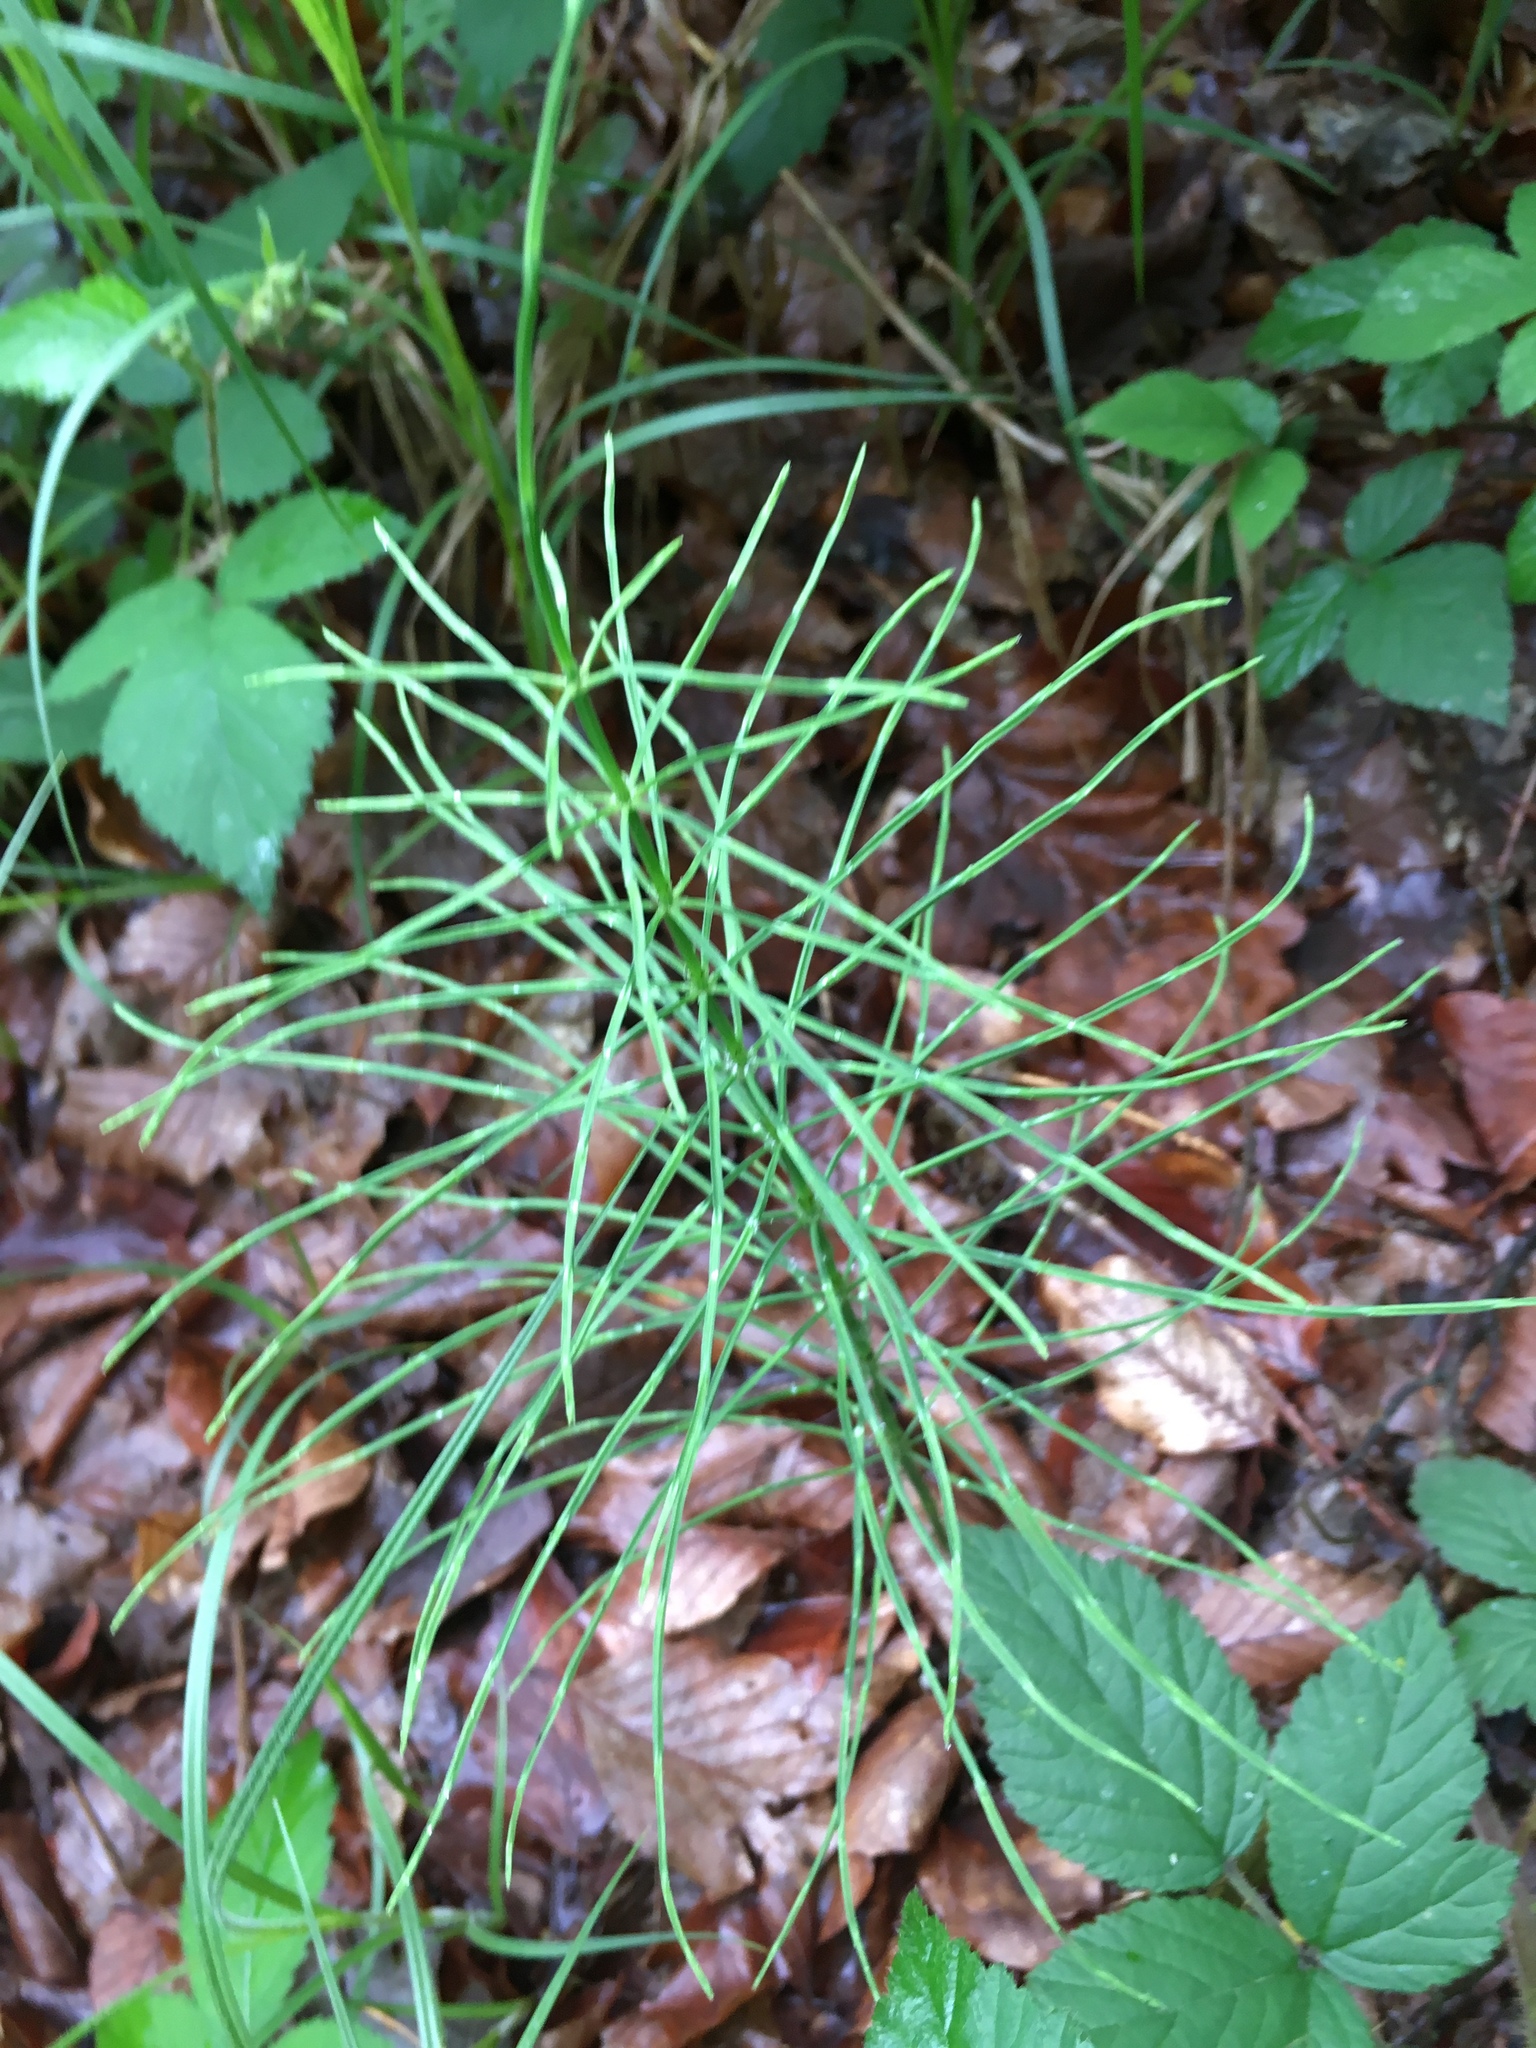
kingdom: Plantae
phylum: Tracheophyta
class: Polypodiopsida
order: Equisetales
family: Equisetaceae
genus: Equisetum
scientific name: Equisetum arvense
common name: Field horsetail
